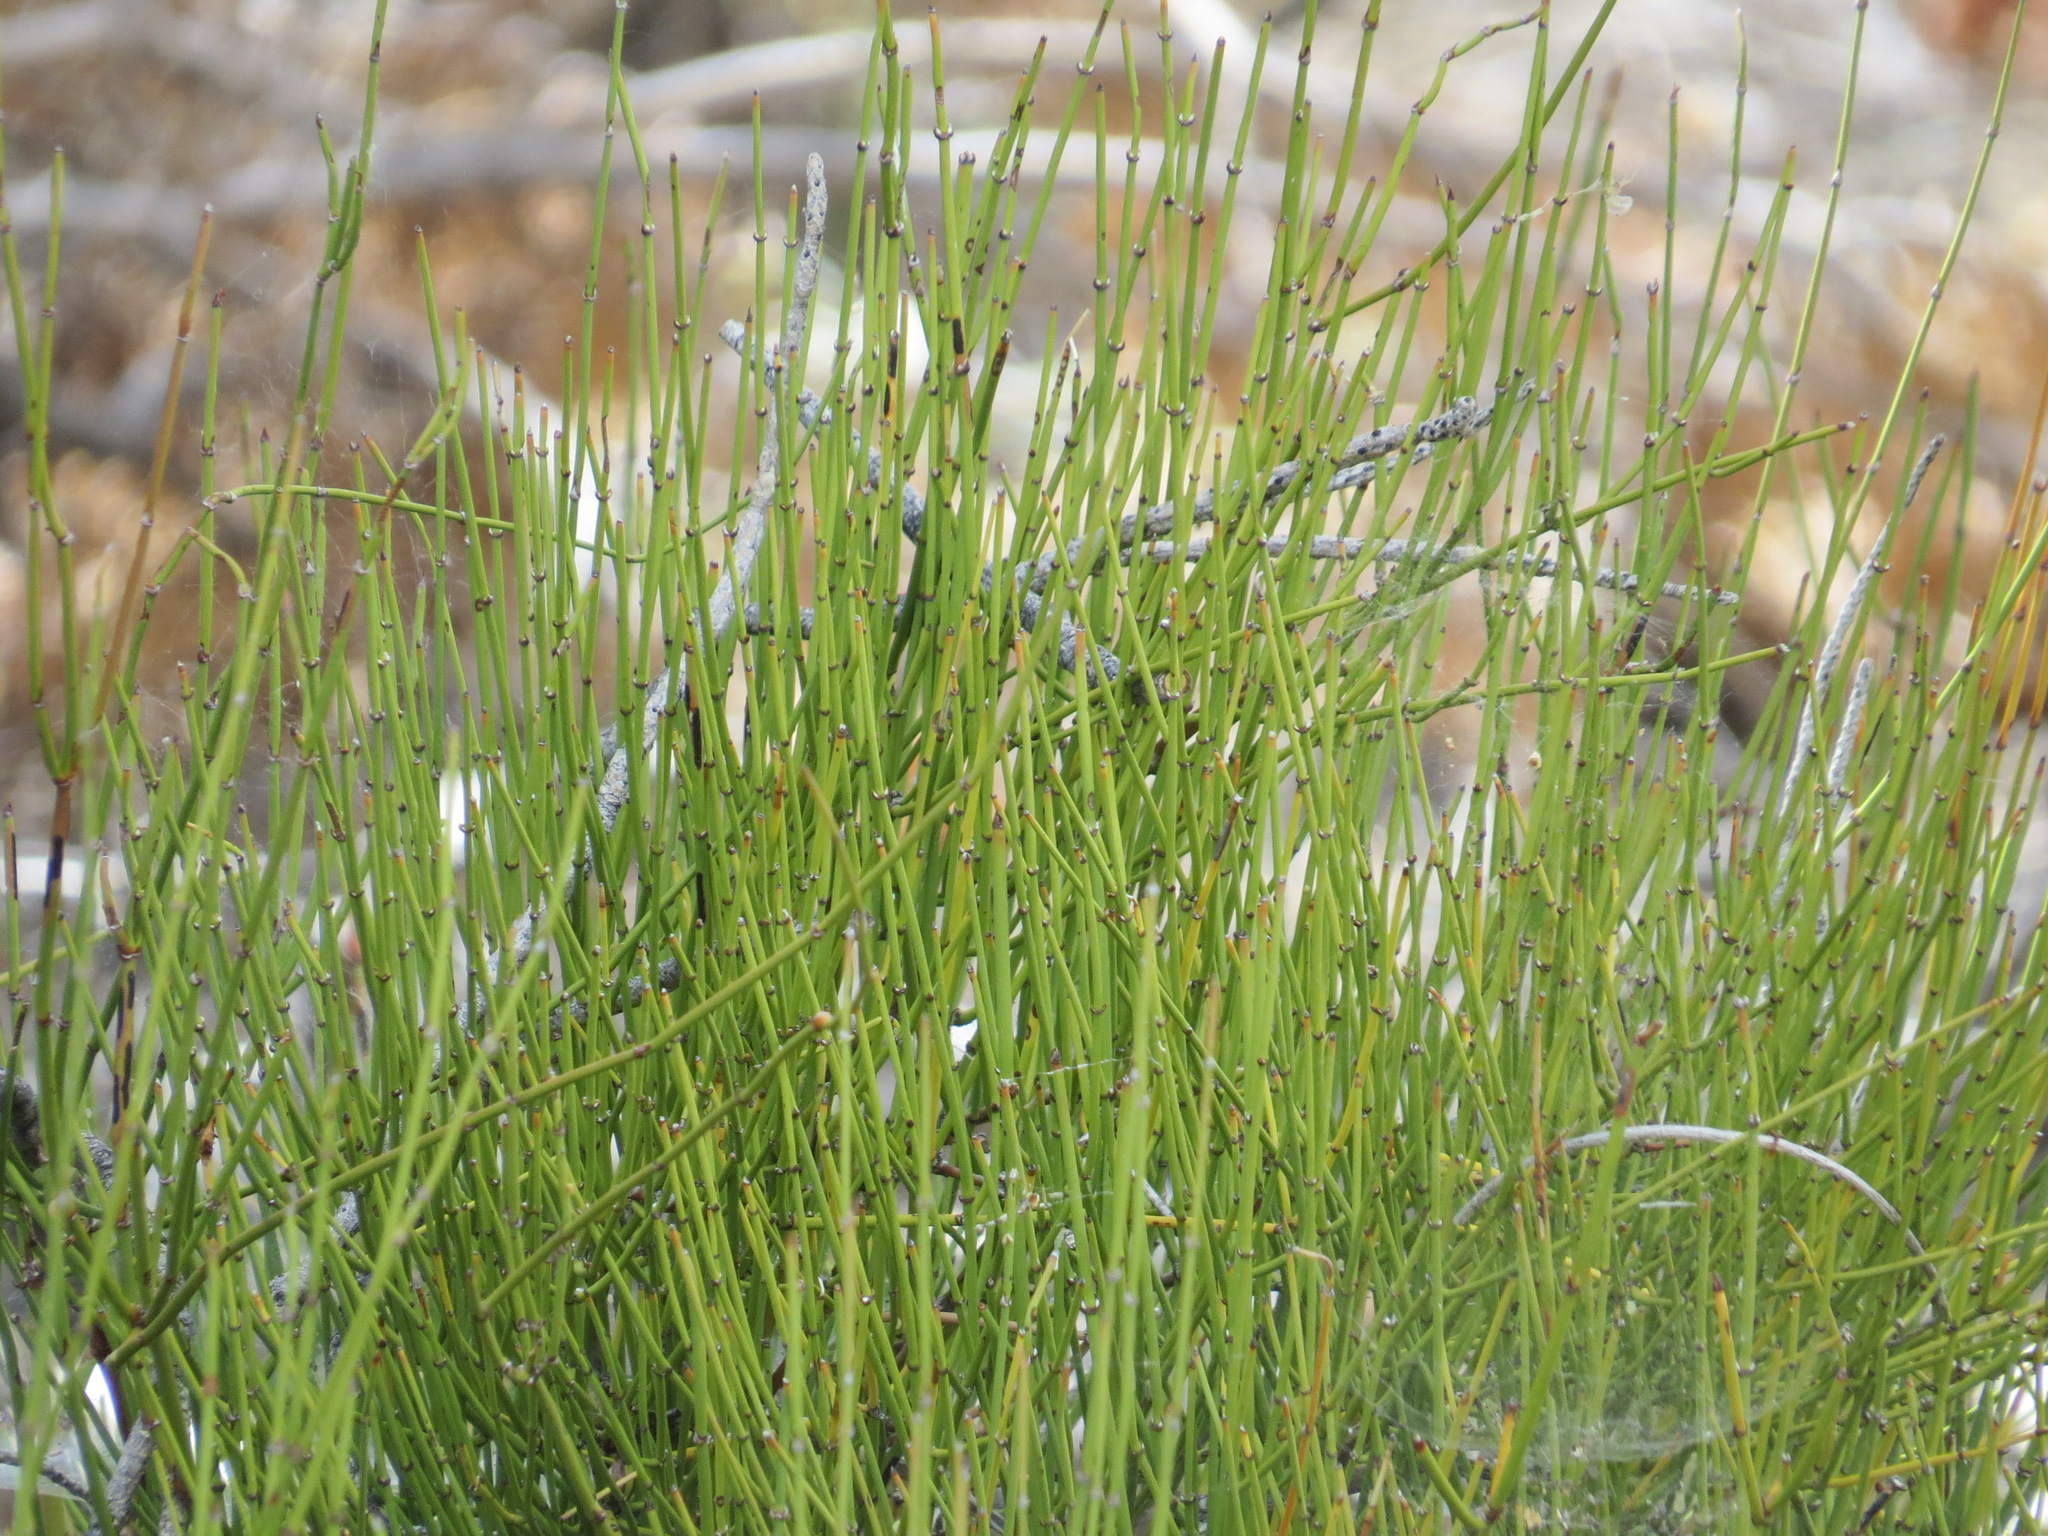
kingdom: Plantae
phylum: Tracheophyta
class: Gnetopsida
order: Ephedrales
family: Ephedraceae
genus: Ephedra
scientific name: Ephedra viridis
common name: Green ephedra
